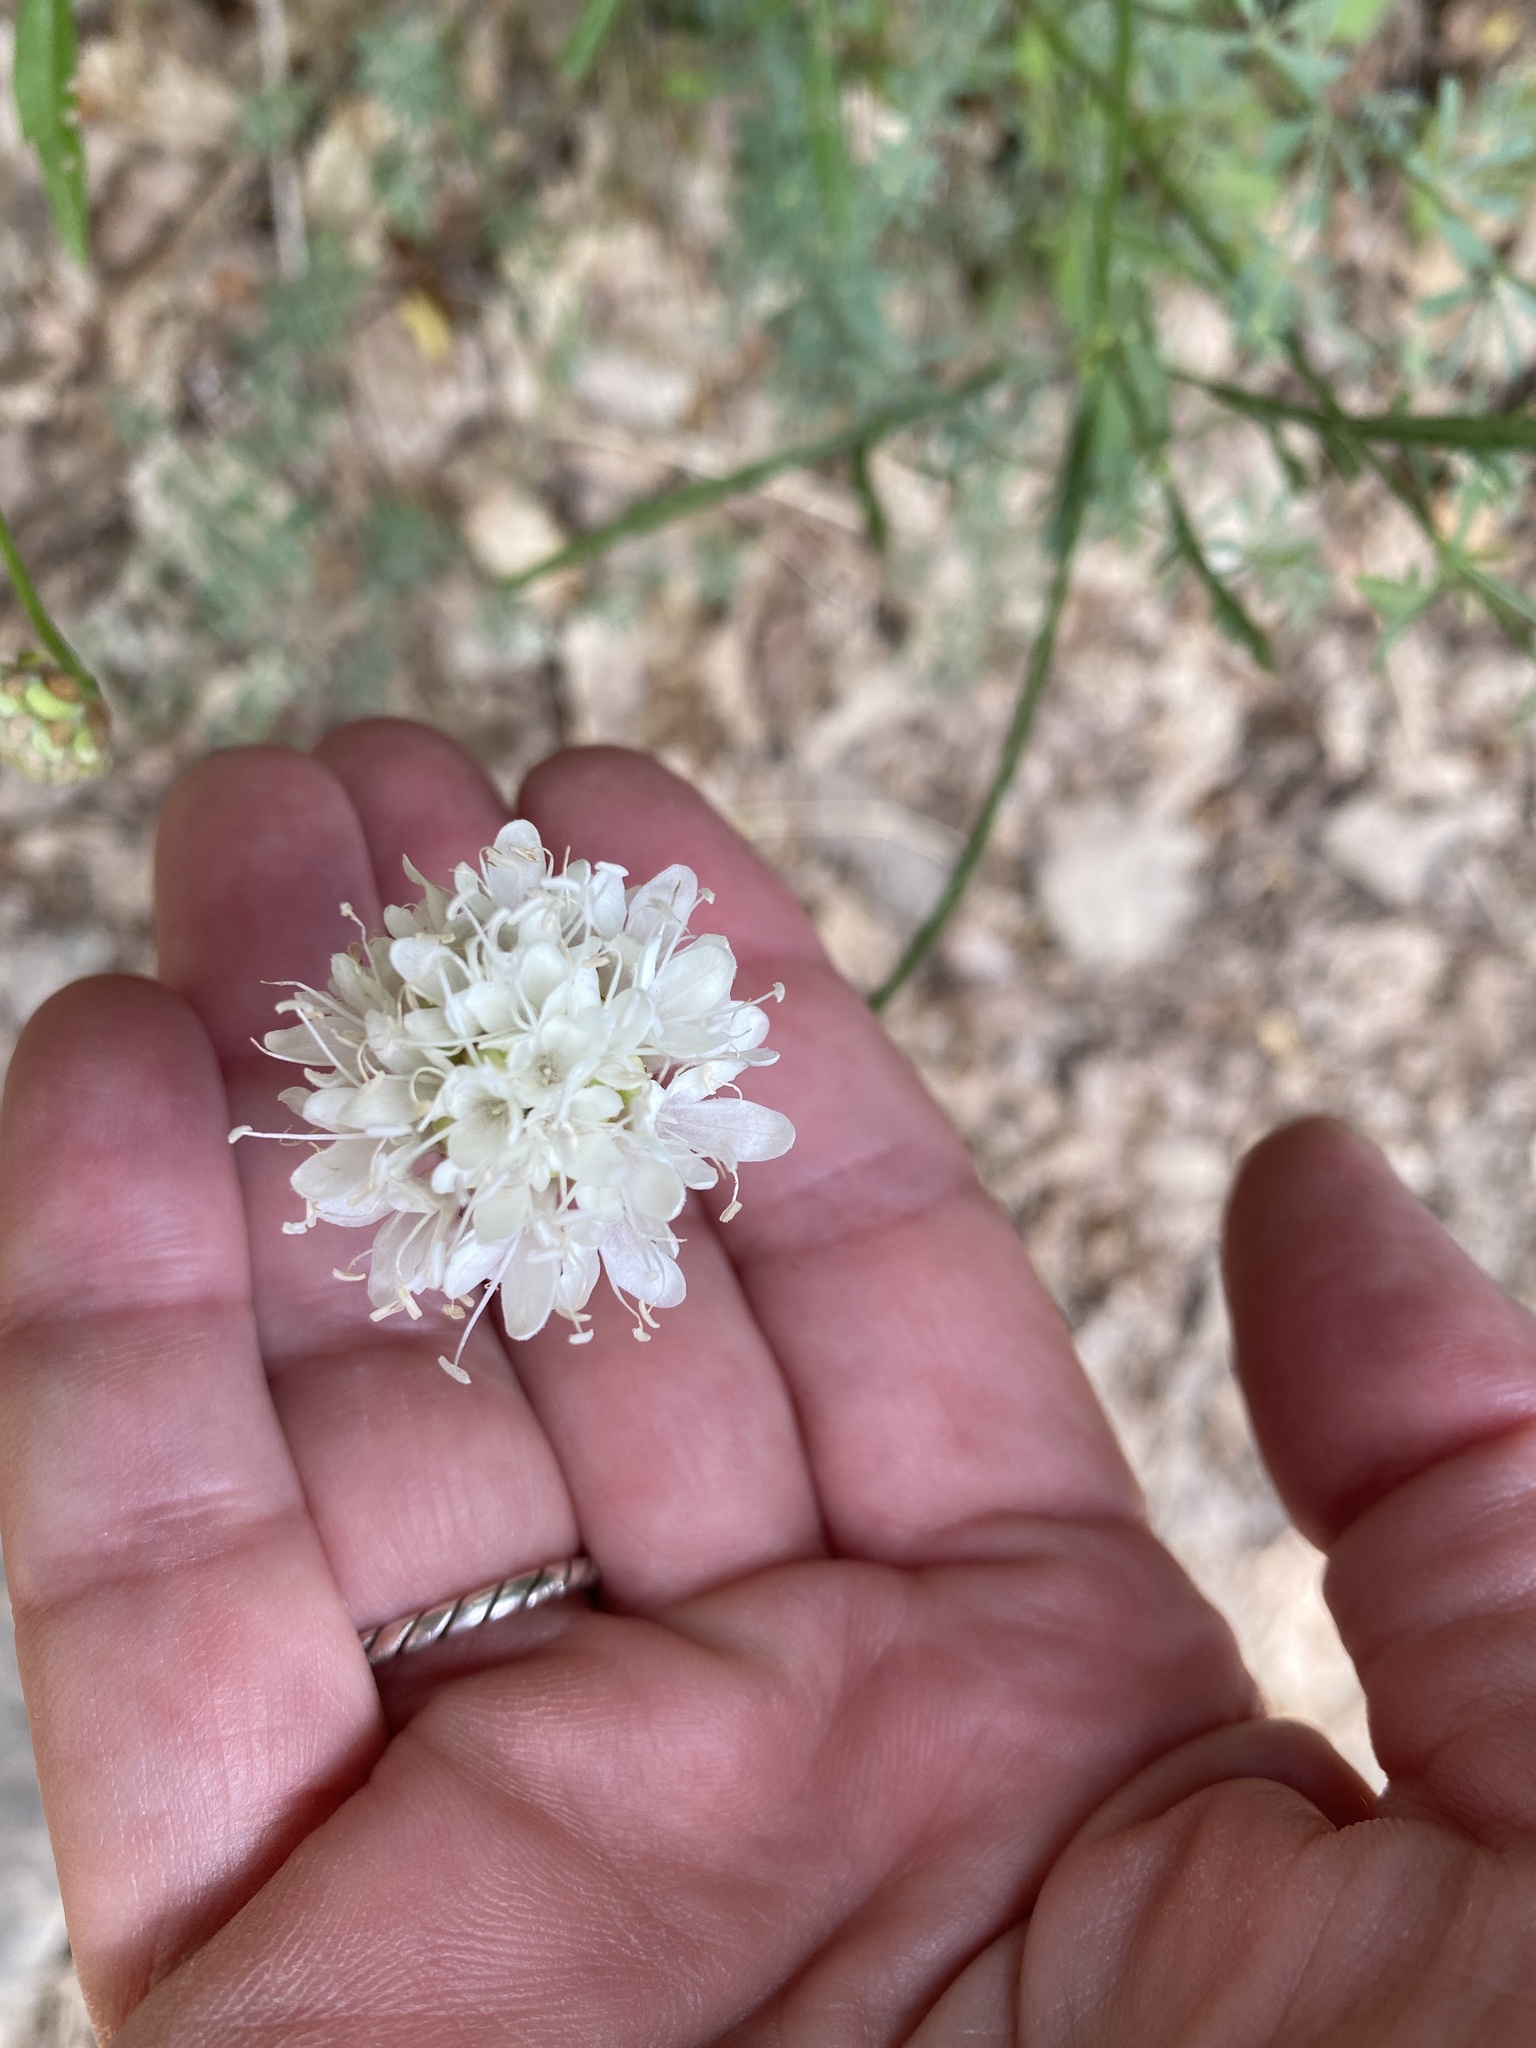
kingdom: Plantae
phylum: Tracheophyta
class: Magnoliopsida
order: Dipsacales
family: Caprifoliaceae
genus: Cephalaria
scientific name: Cephalaria leucantha
